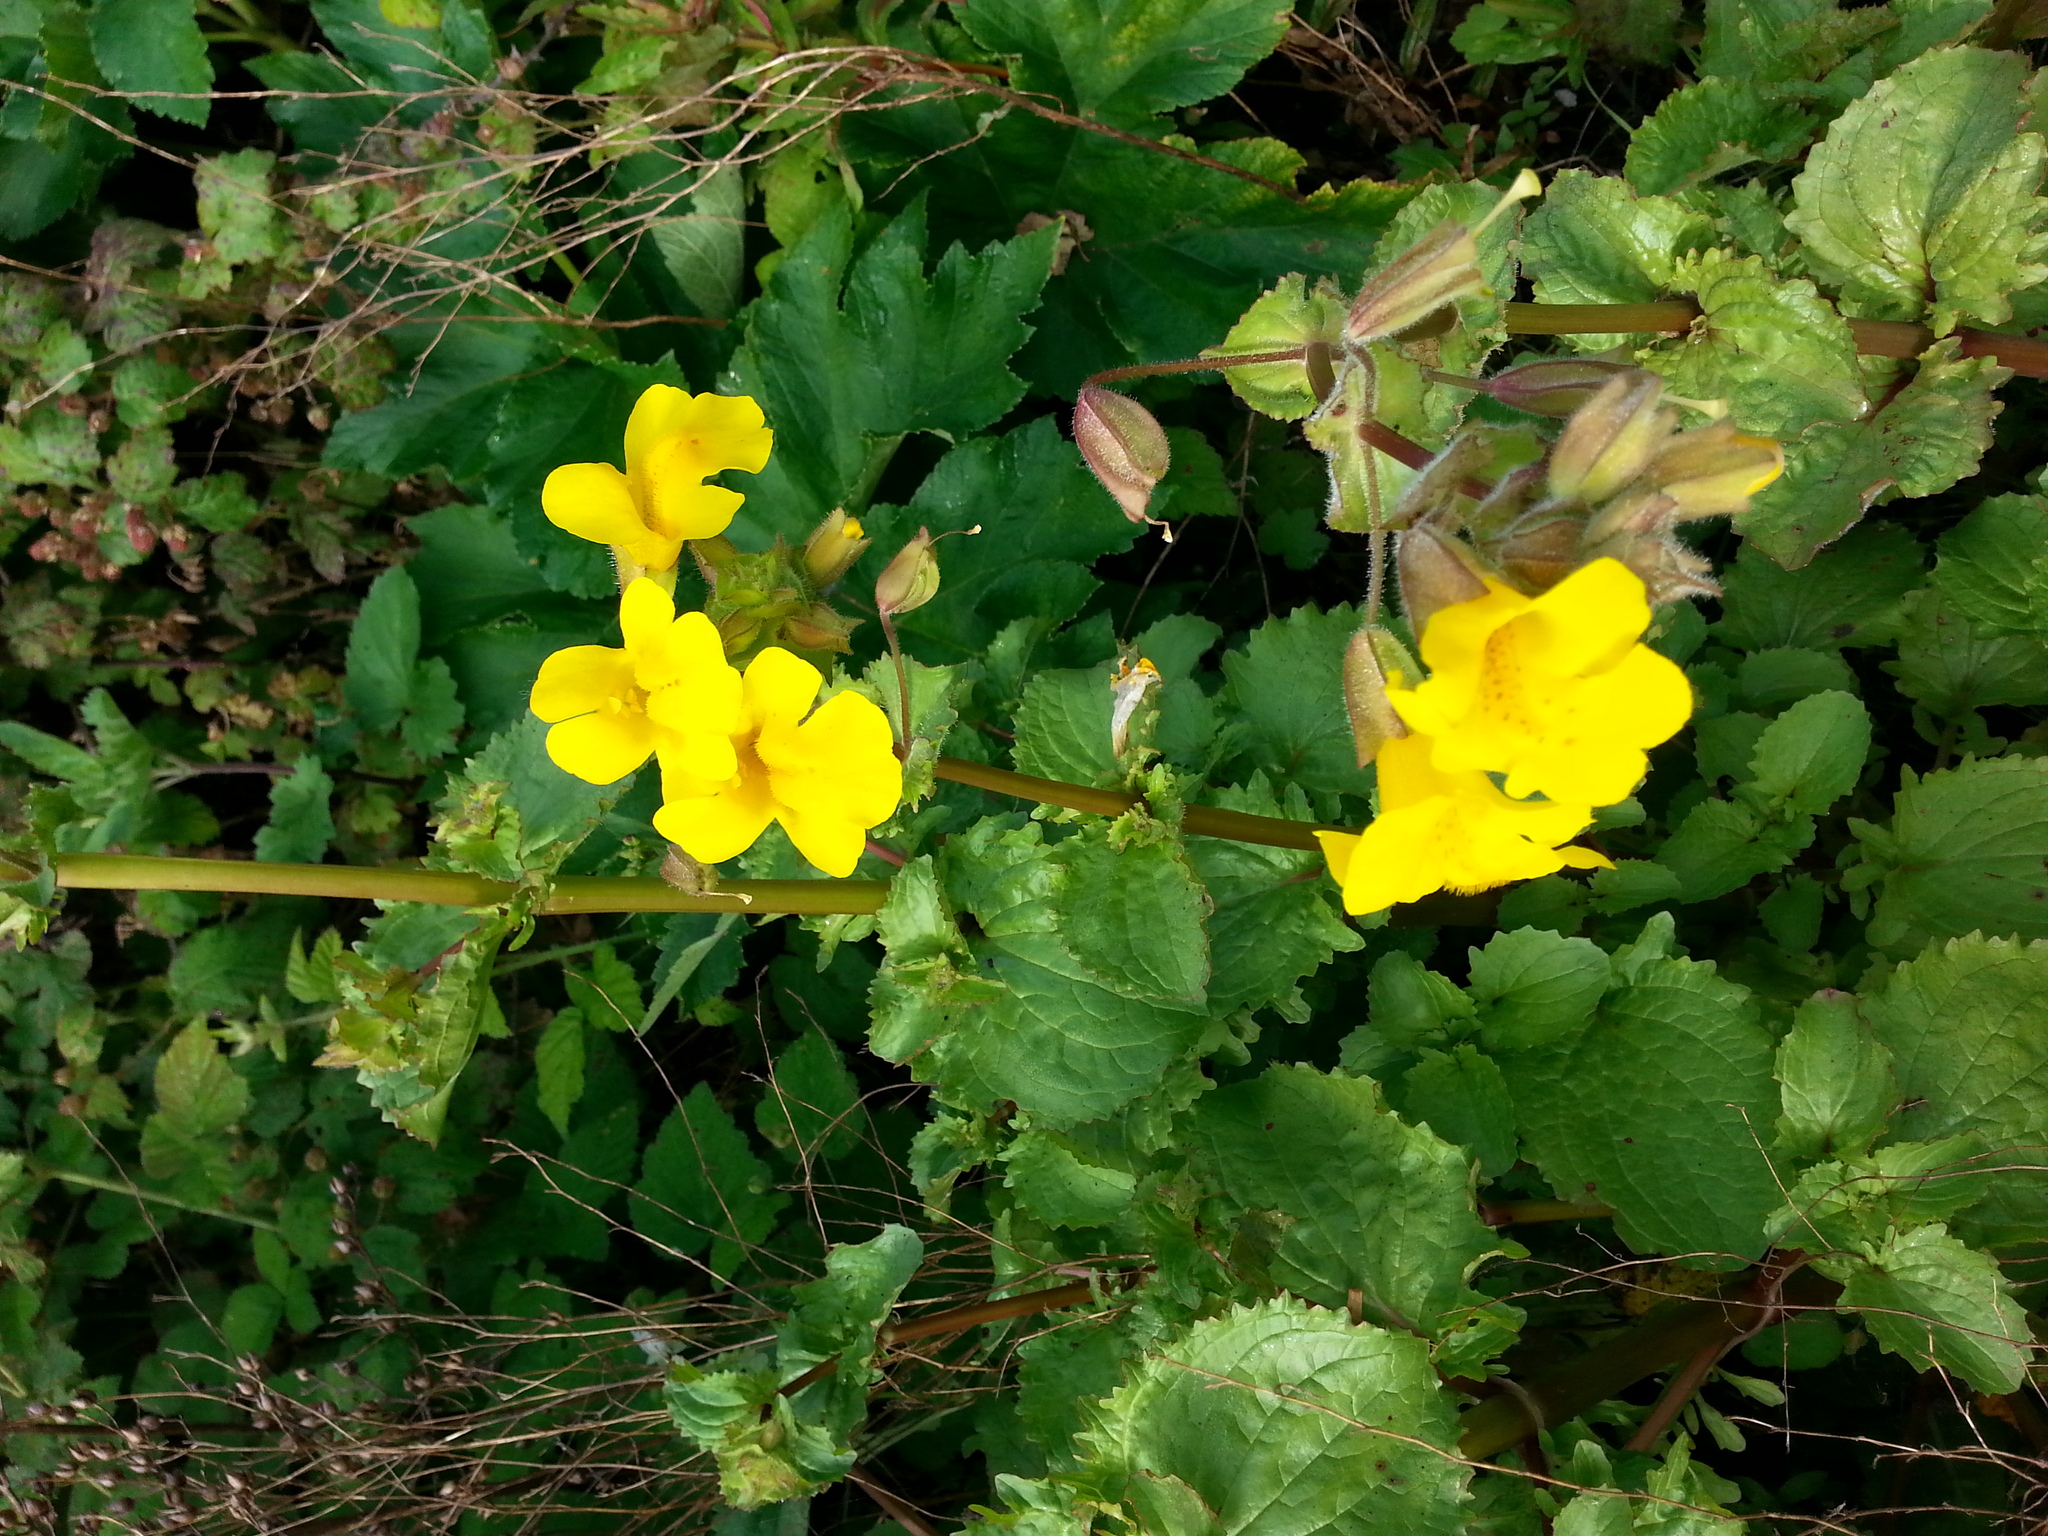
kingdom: Plantae
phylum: Tracheophyta
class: Magnoliopsida
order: Lamiales
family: Phrymaceae
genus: Erythranthe
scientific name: Erythranthe guttata
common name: Monkeyflower
